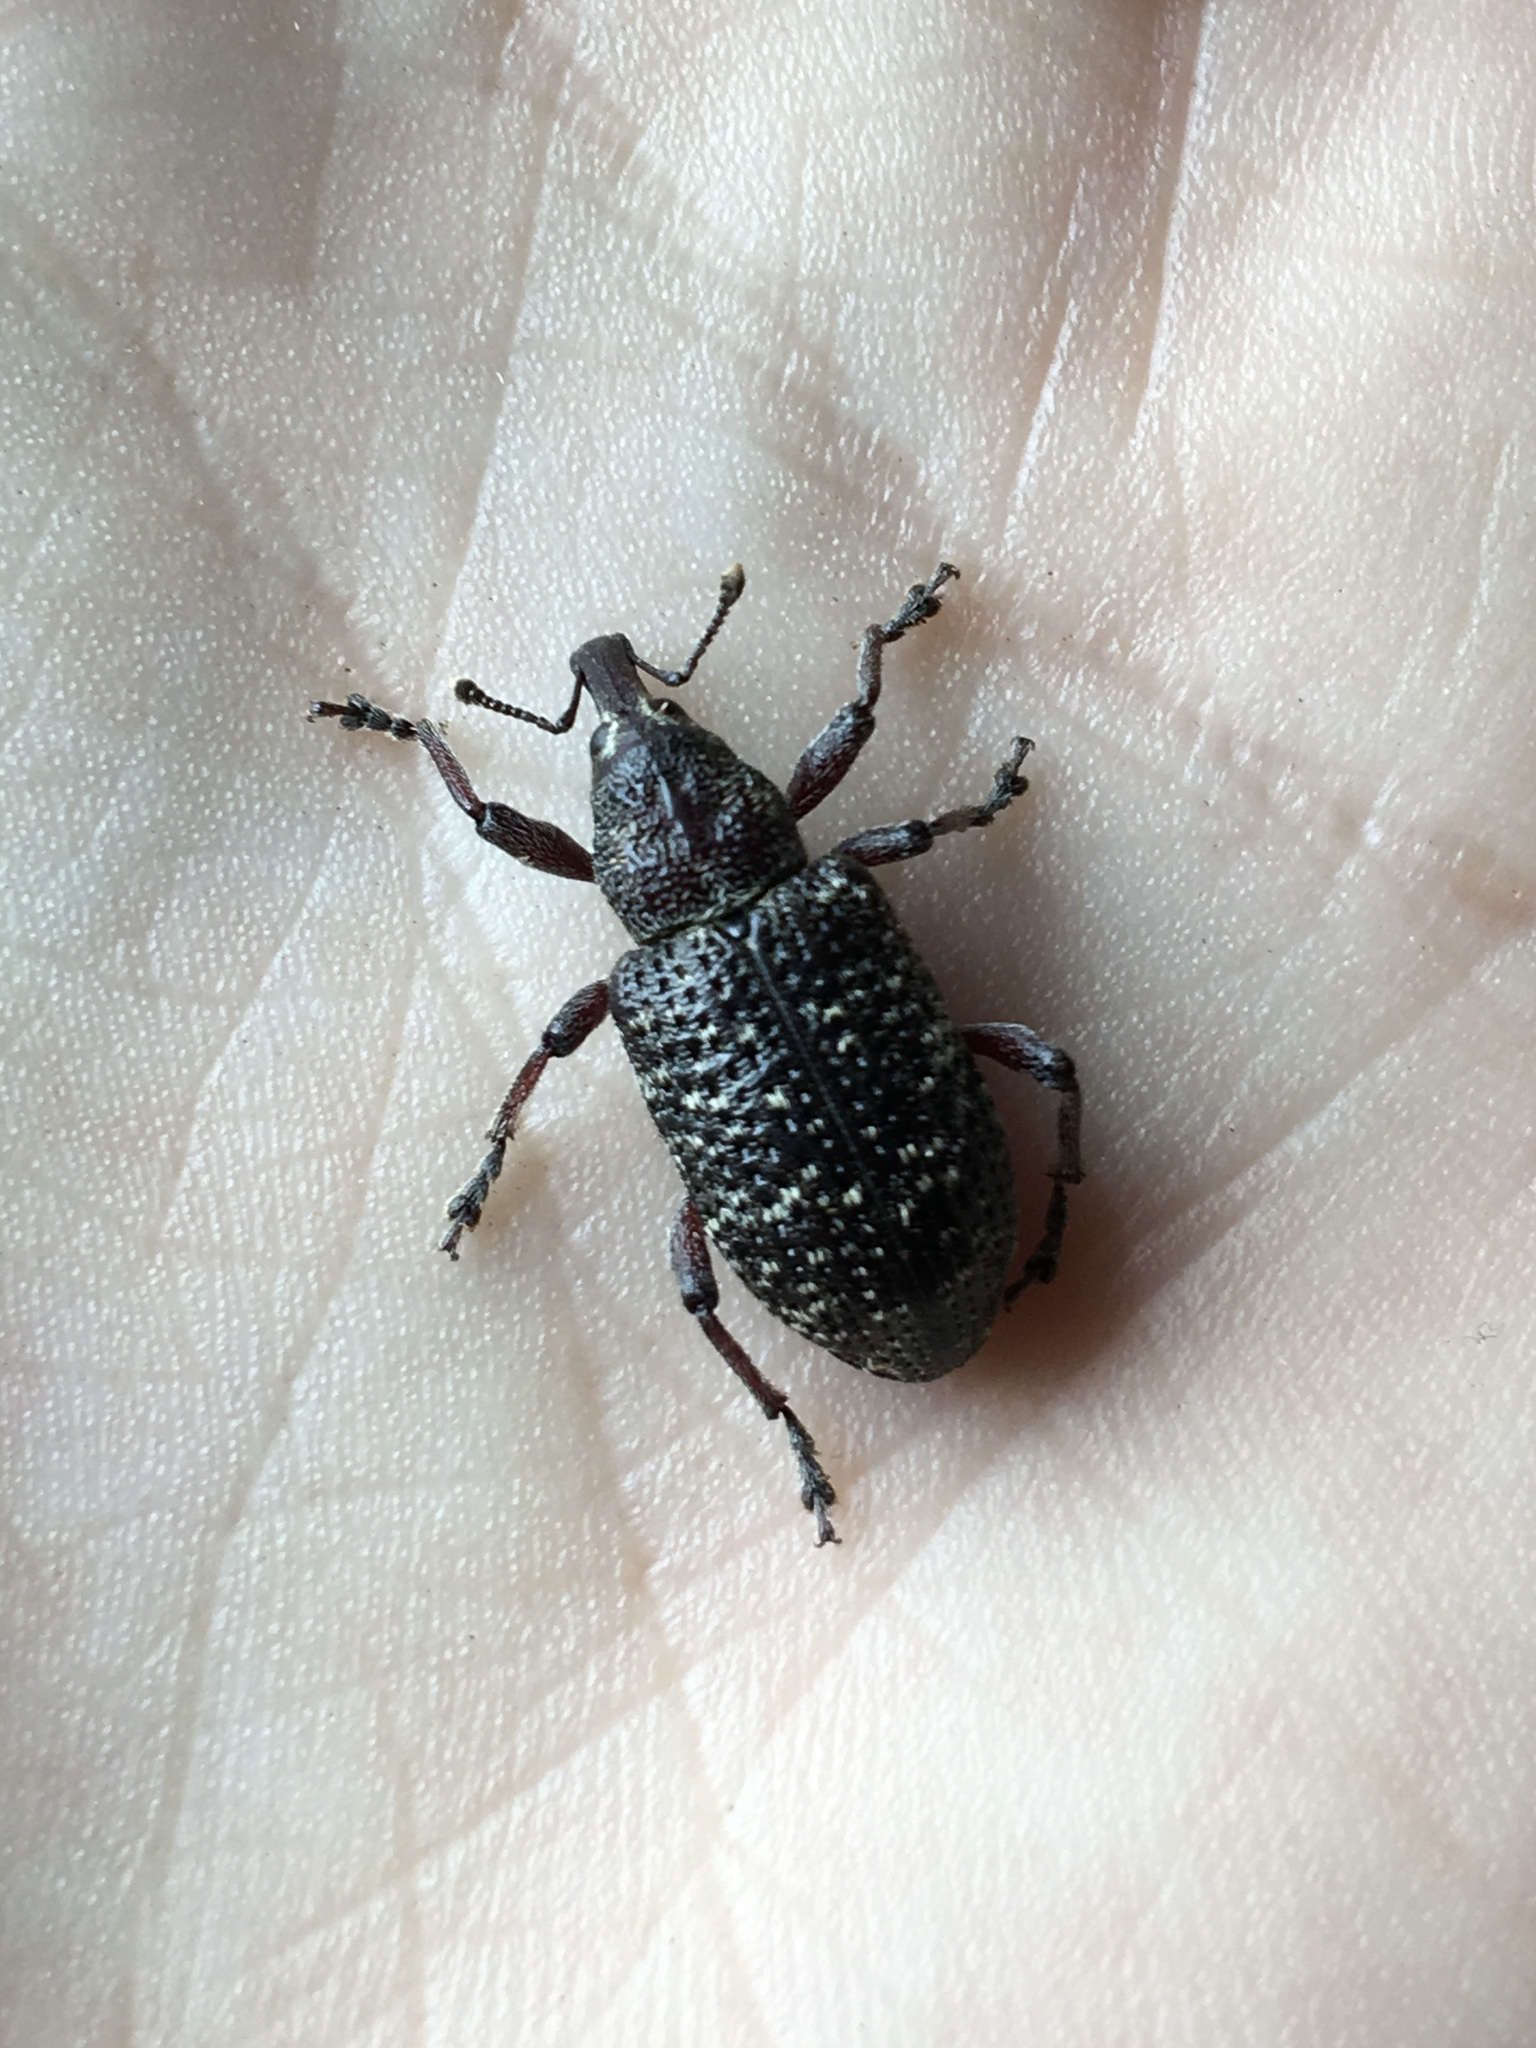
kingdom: Animalia
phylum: Arthropoda
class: Insecta
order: Coleoptera
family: Curculionidae
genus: Hylobius
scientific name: Hylobius excavatus
